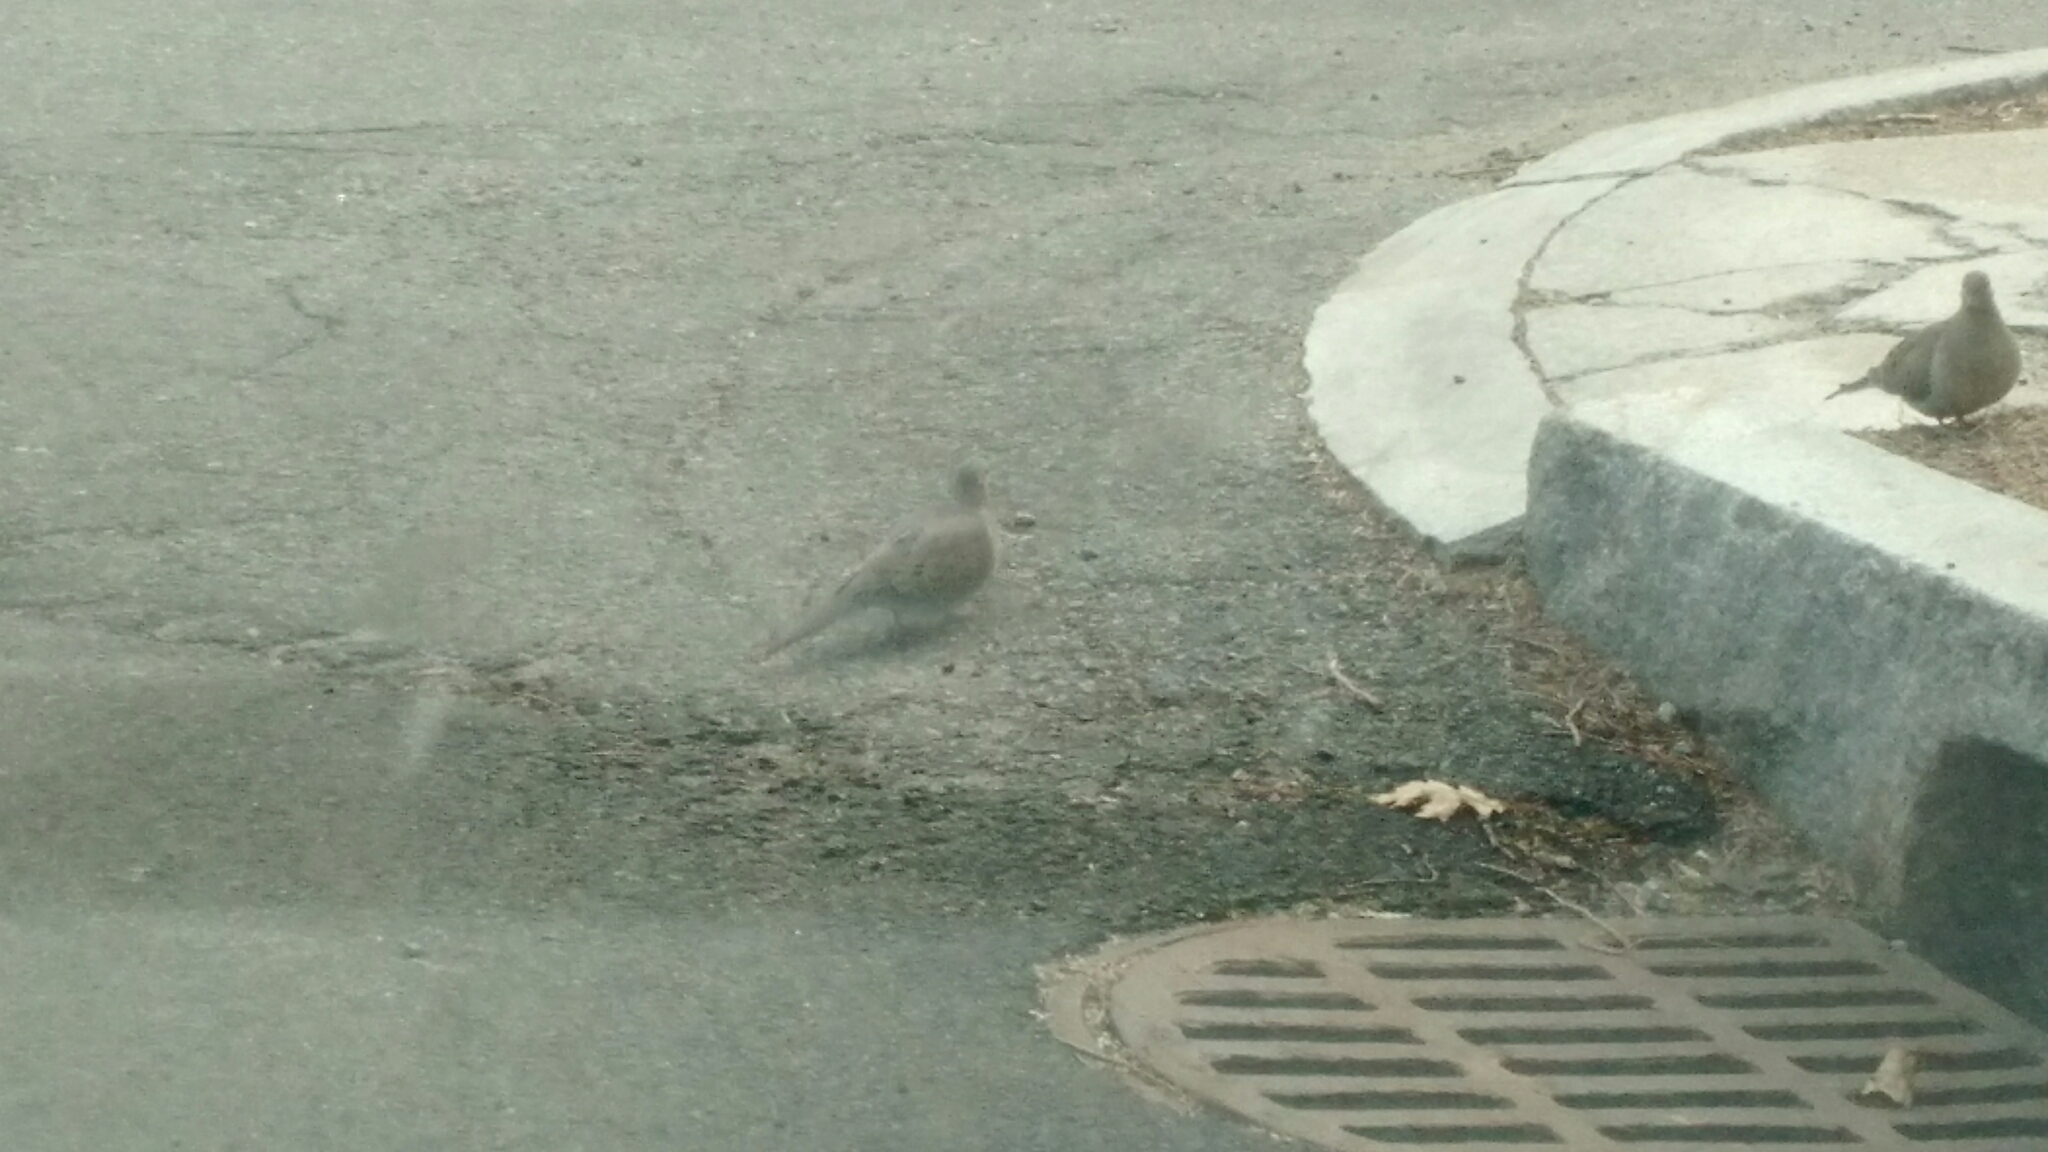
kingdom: Animalia
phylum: Chordata
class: Aves
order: Columbiformes
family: Columbidae
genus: Zenaida
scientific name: Zenaida macroura
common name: Mourning dove
